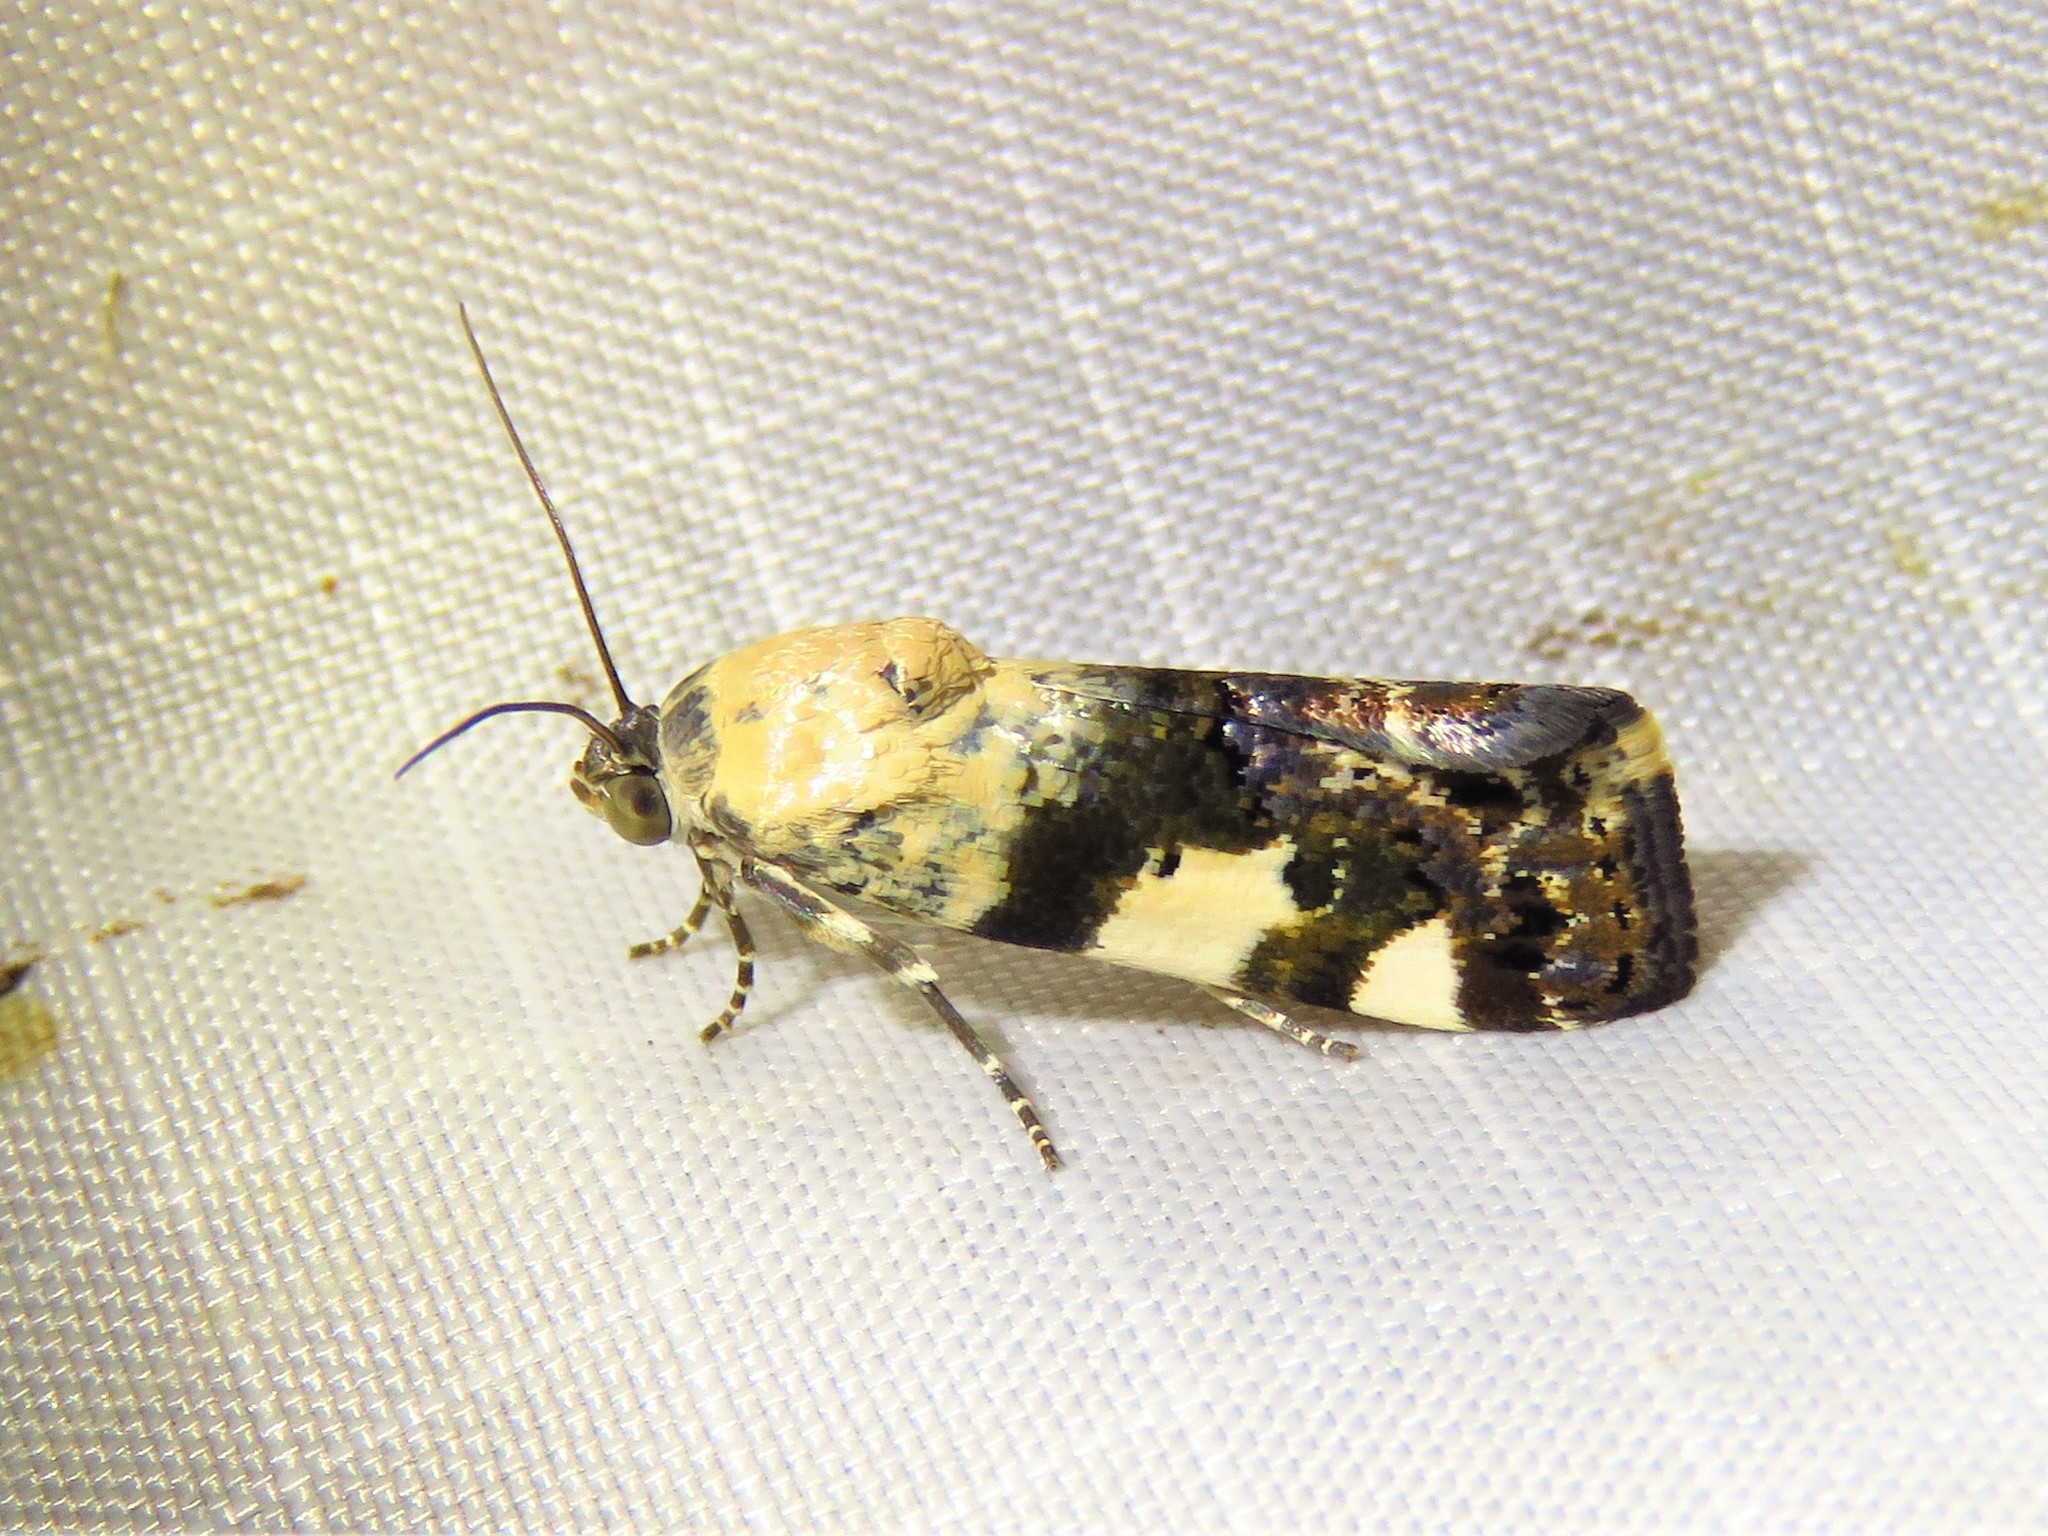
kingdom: Animalia
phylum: Arthropoda
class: Insecta
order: Lepidoptera
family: Noctuidae
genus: Acontia
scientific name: Acontia aprica
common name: Nun
